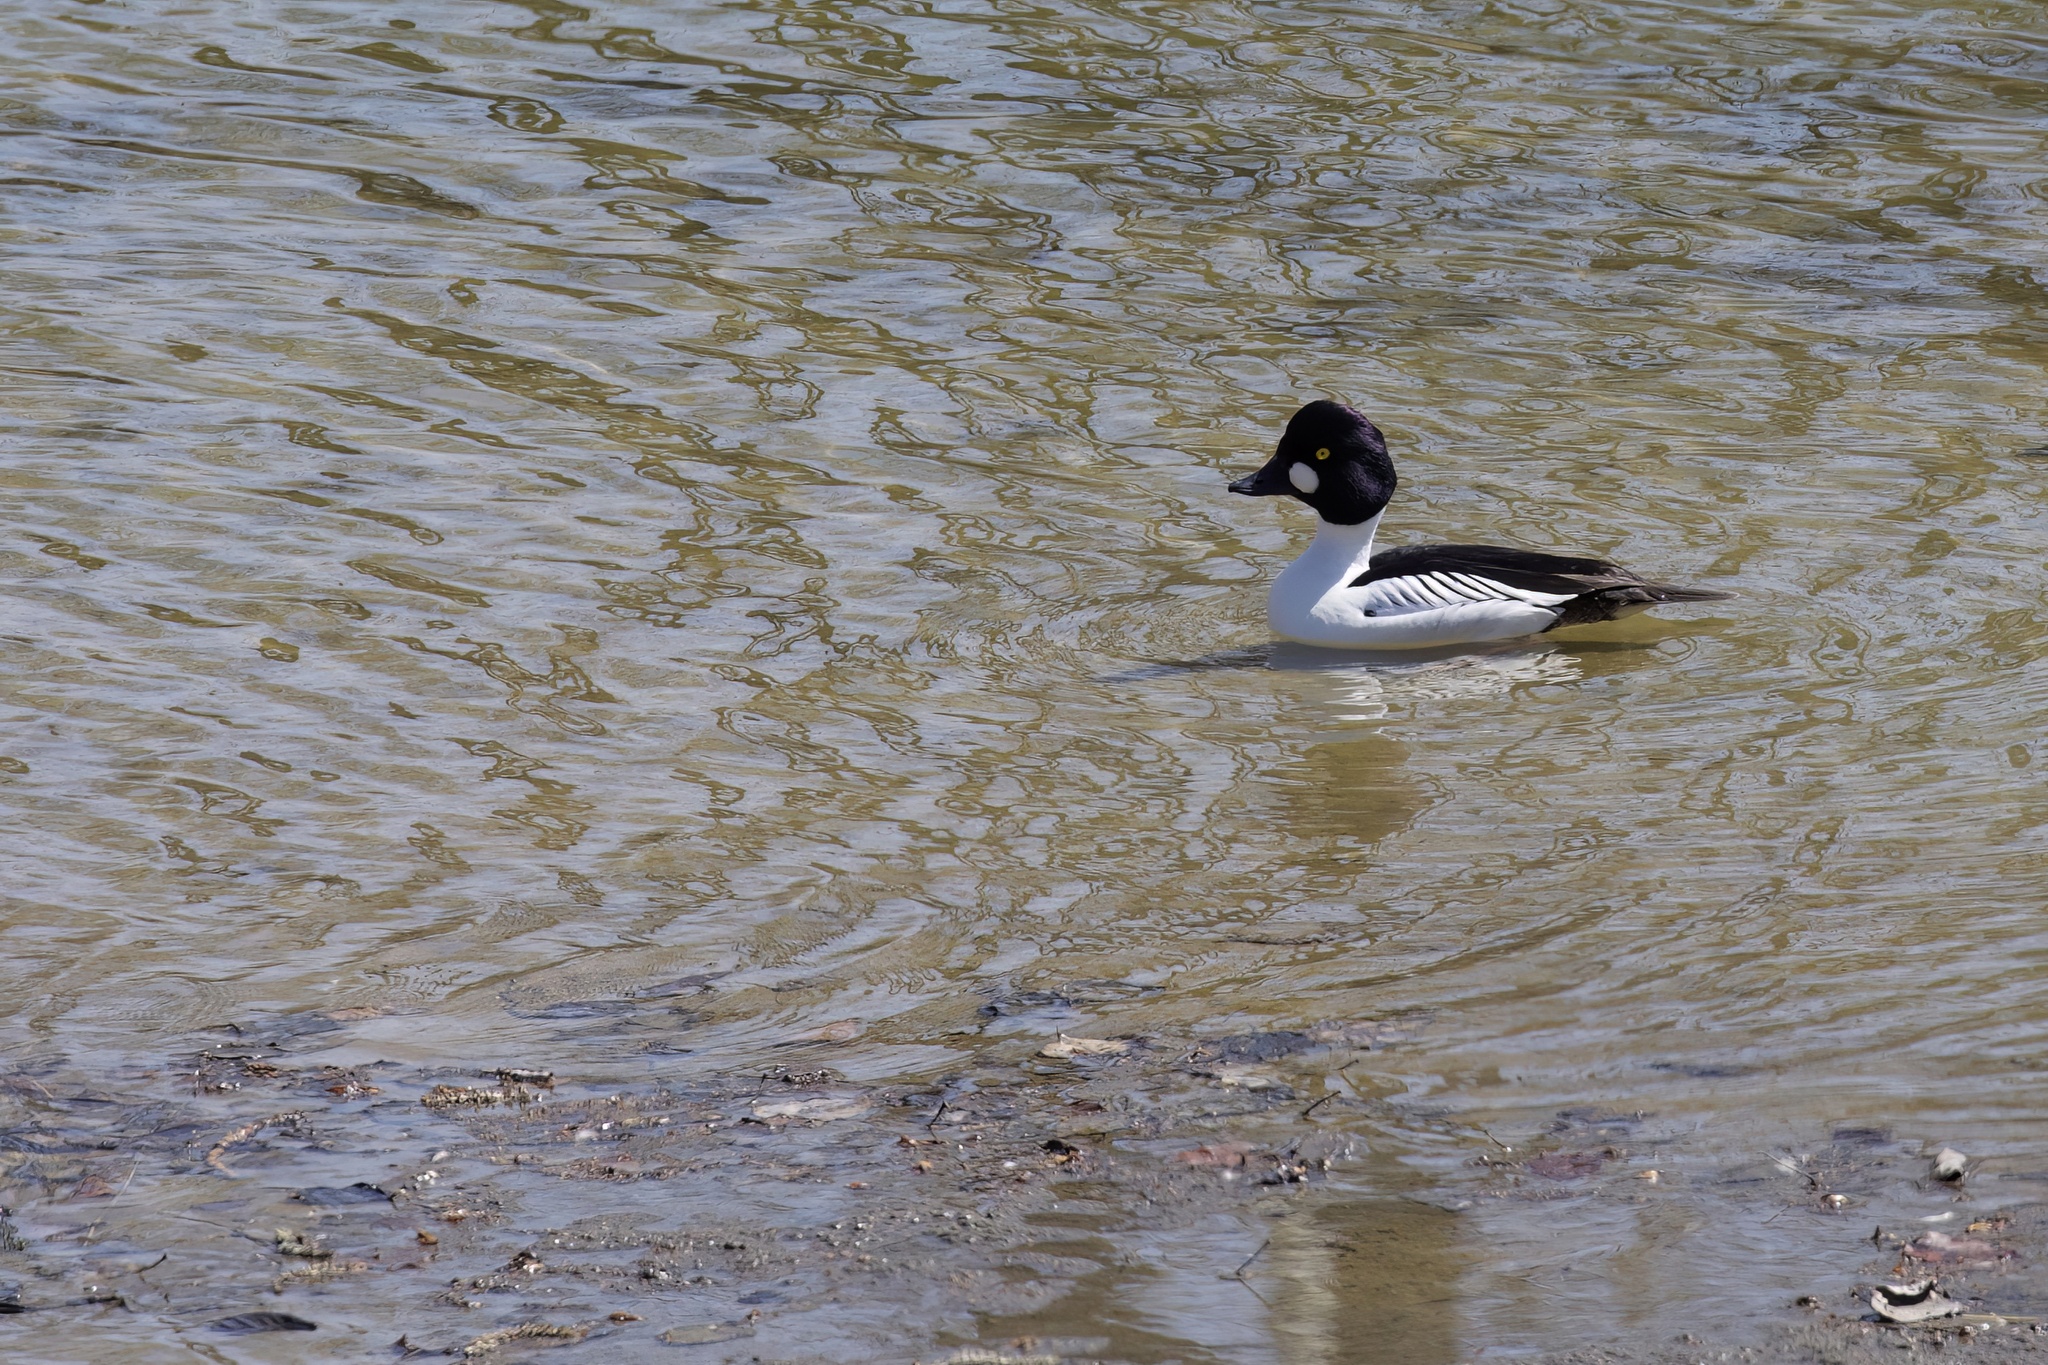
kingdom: Animalia
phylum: Chordata
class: Aves
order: Anseriformes
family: Anatidae
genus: Bucephala
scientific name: Bucephala clangula
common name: Common goldeneye
